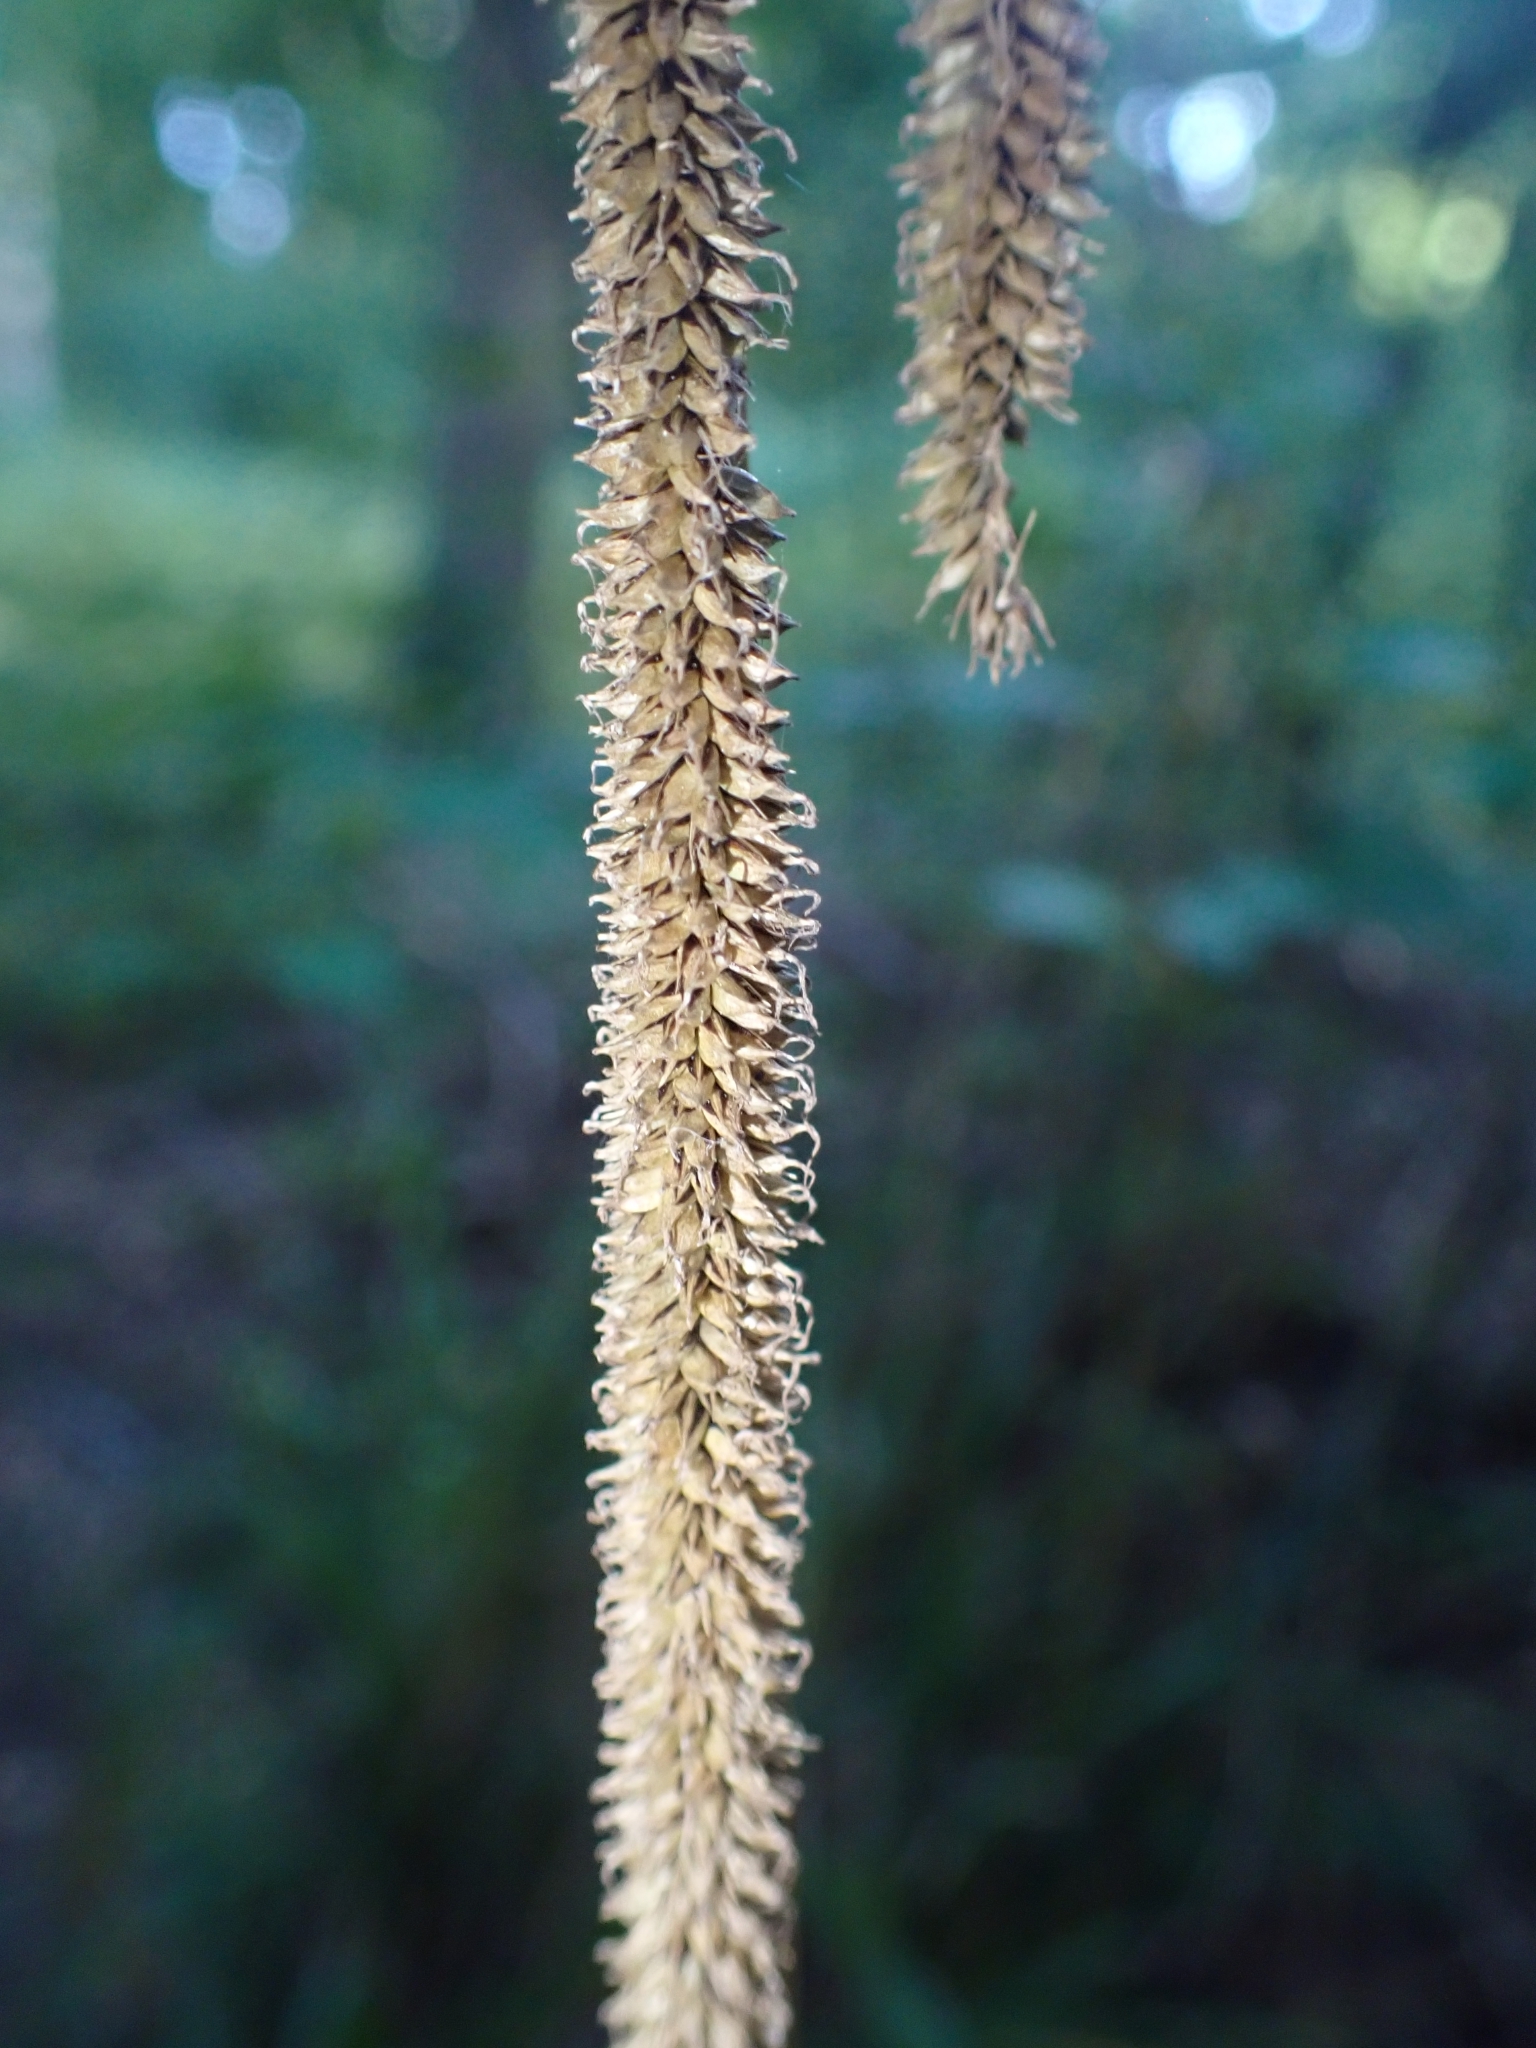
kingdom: Plantae
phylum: Tracheophyta
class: Liliopsida
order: Poales
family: Cyperaceae
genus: Carex
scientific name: Carex pendula
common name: Pendulous sedge
